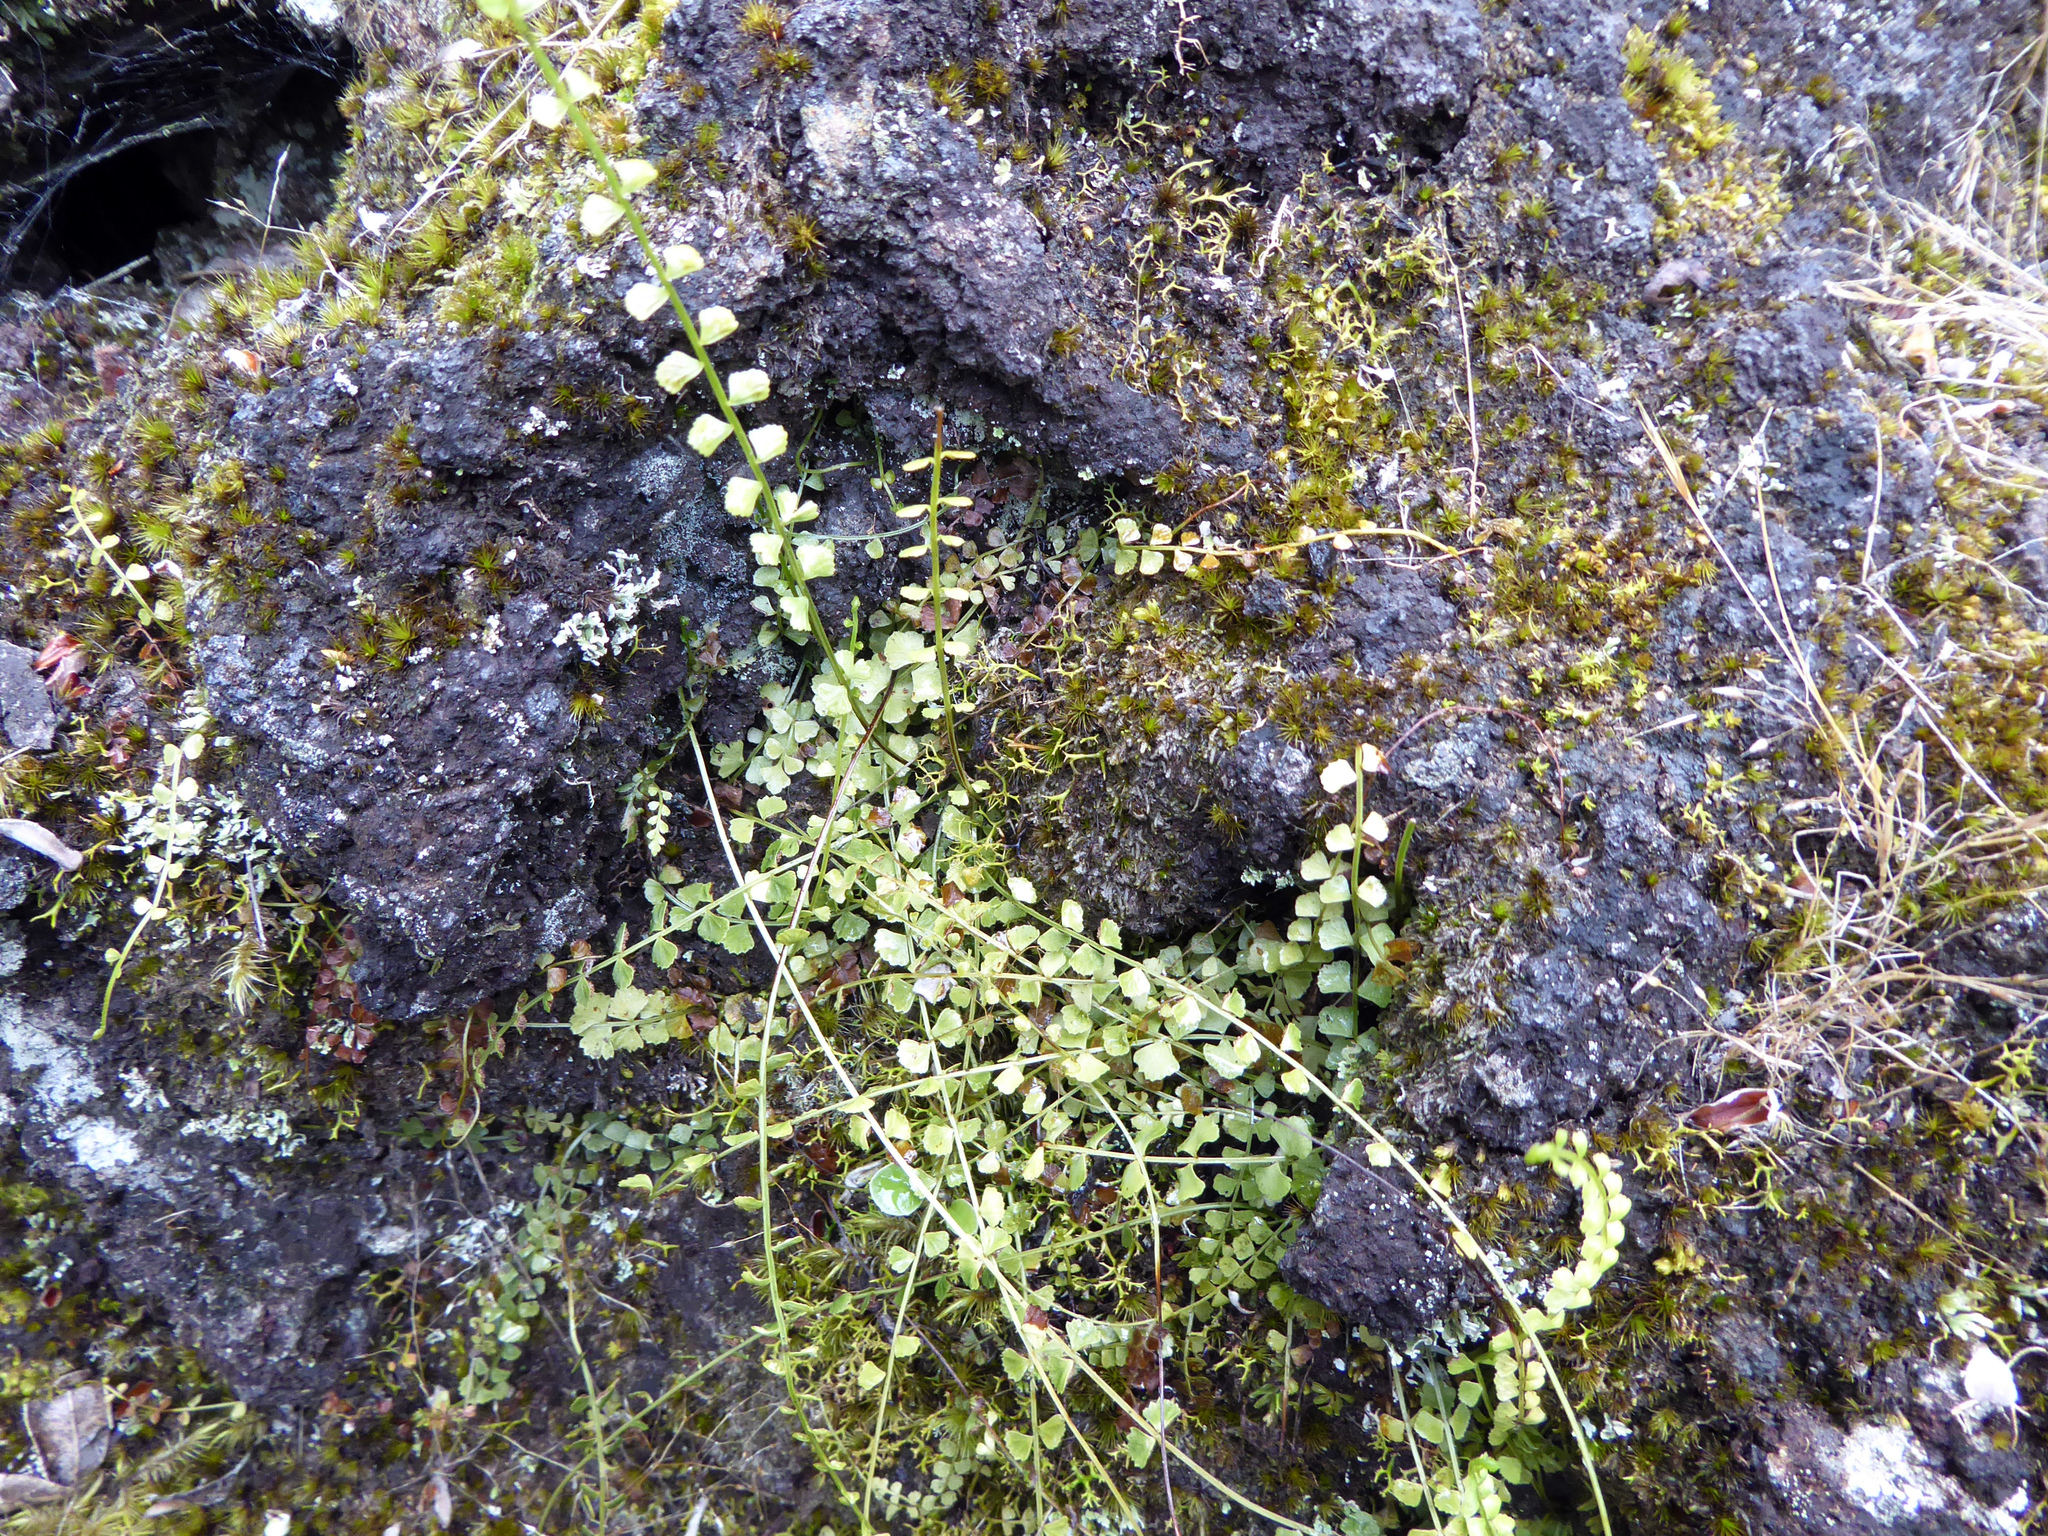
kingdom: Plantae
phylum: Tracheophyta
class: Polypodiopsida
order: Polypodiales
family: Aspleniaceae
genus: Asplenium
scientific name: Asplenium flabellifolium
